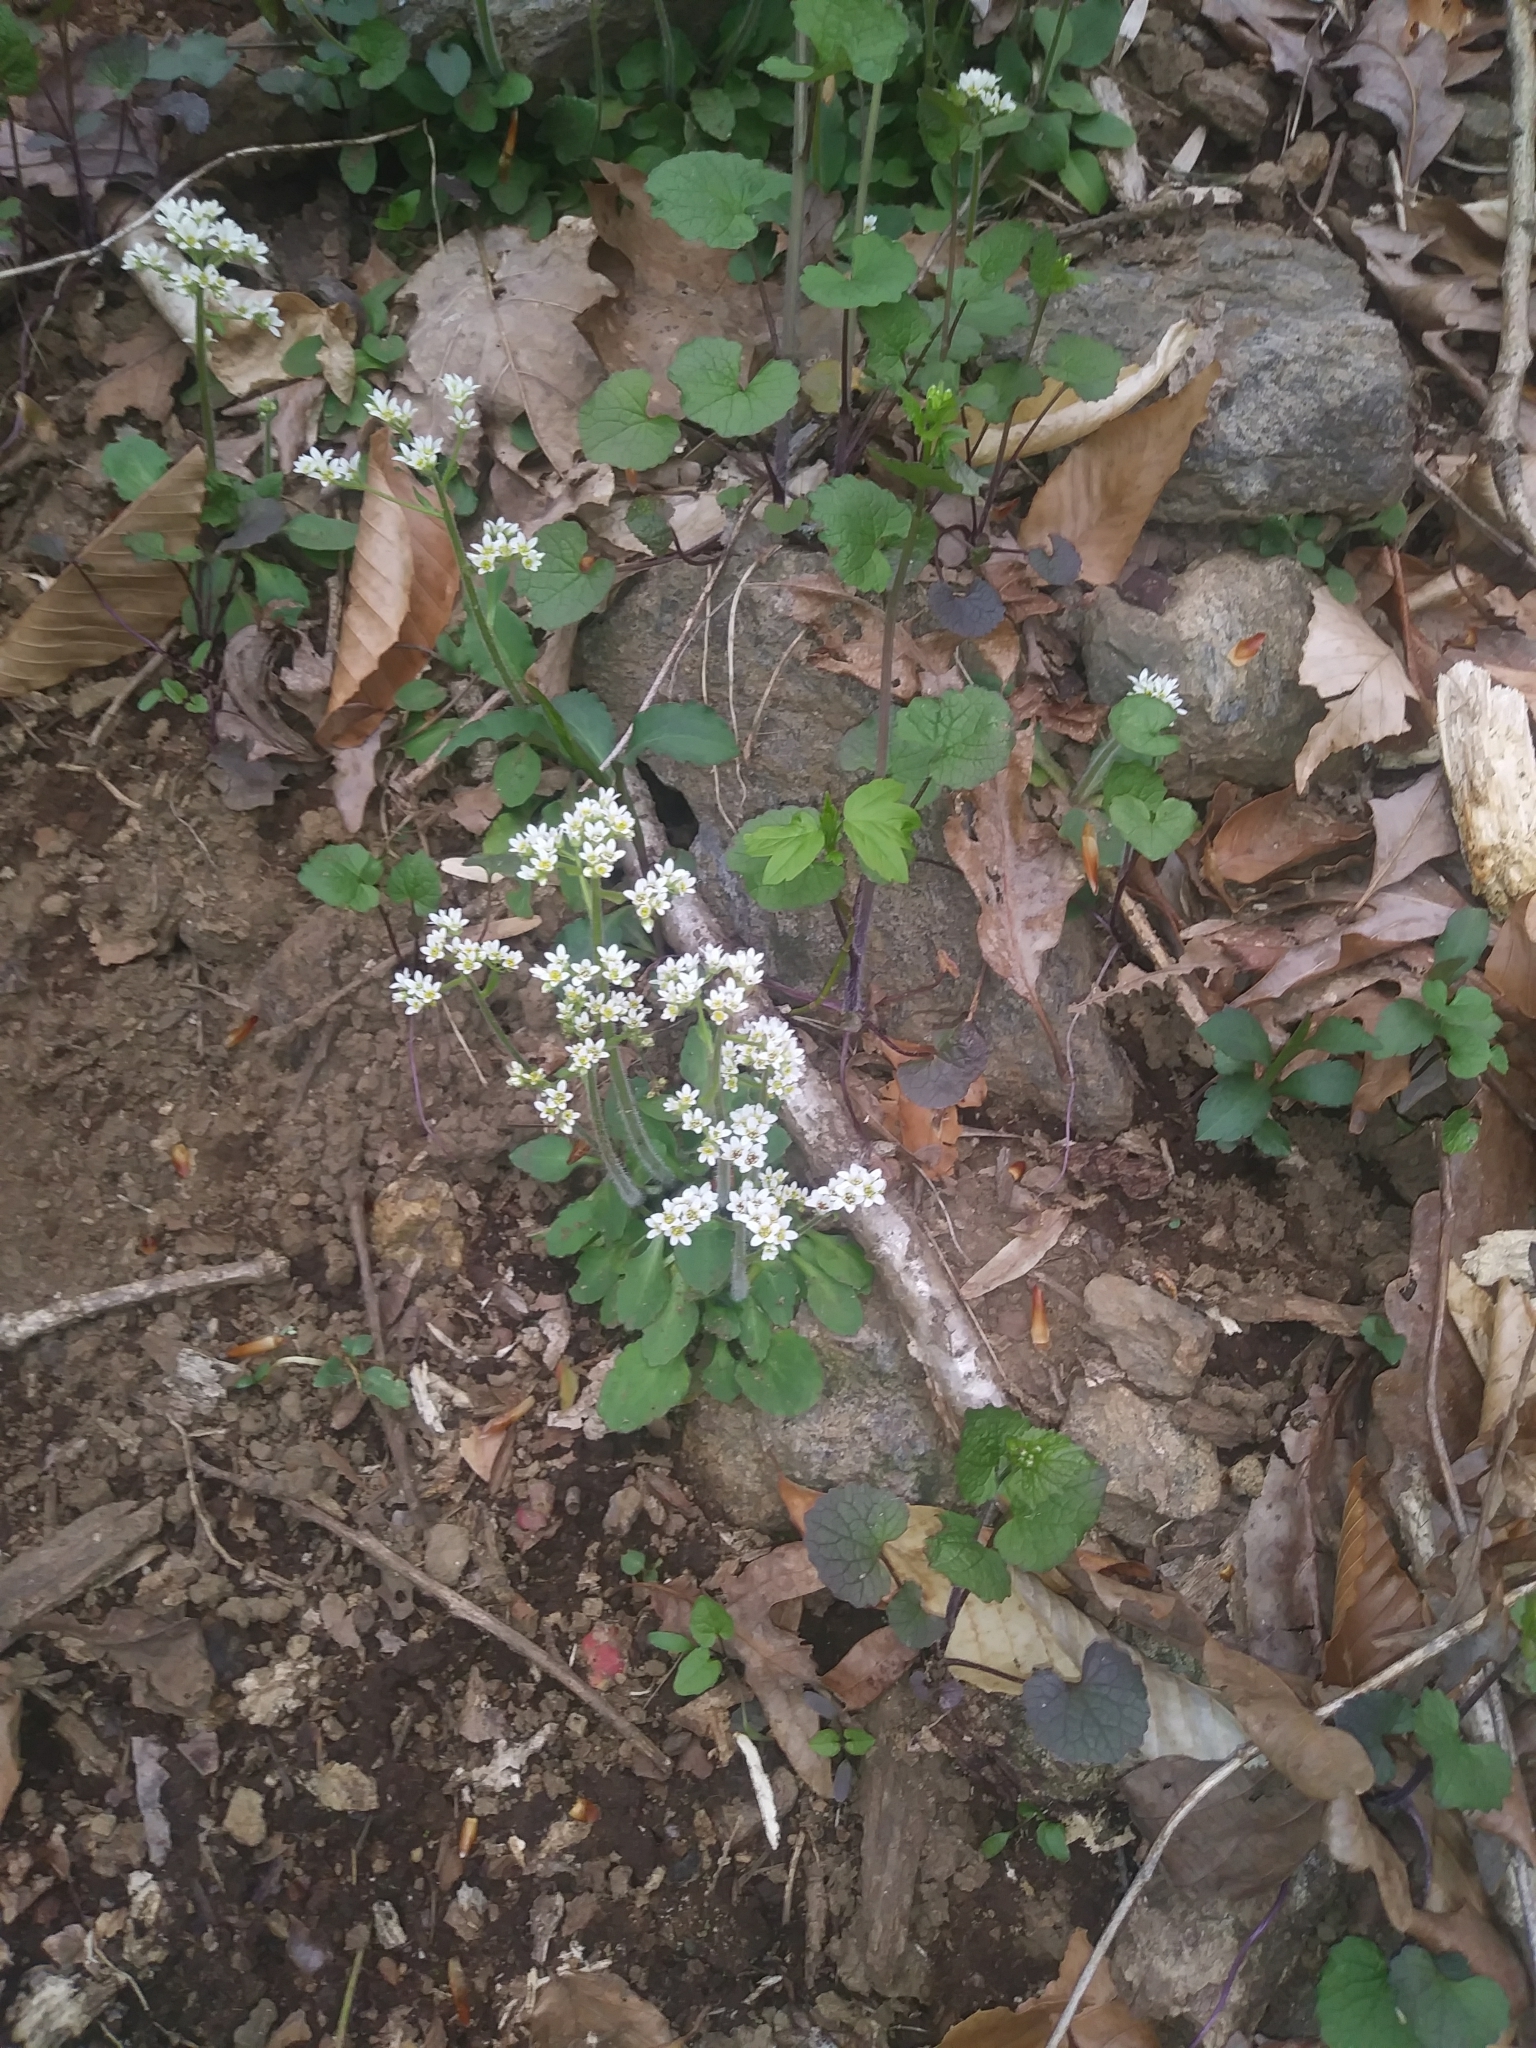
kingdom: Plantae
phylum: Tracheophyta
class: Magnoliopsida
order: Saxifragales
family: Saxifragaceae
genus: Micranthes
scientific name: Micranthes virginiensis
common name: Early saxifrage
